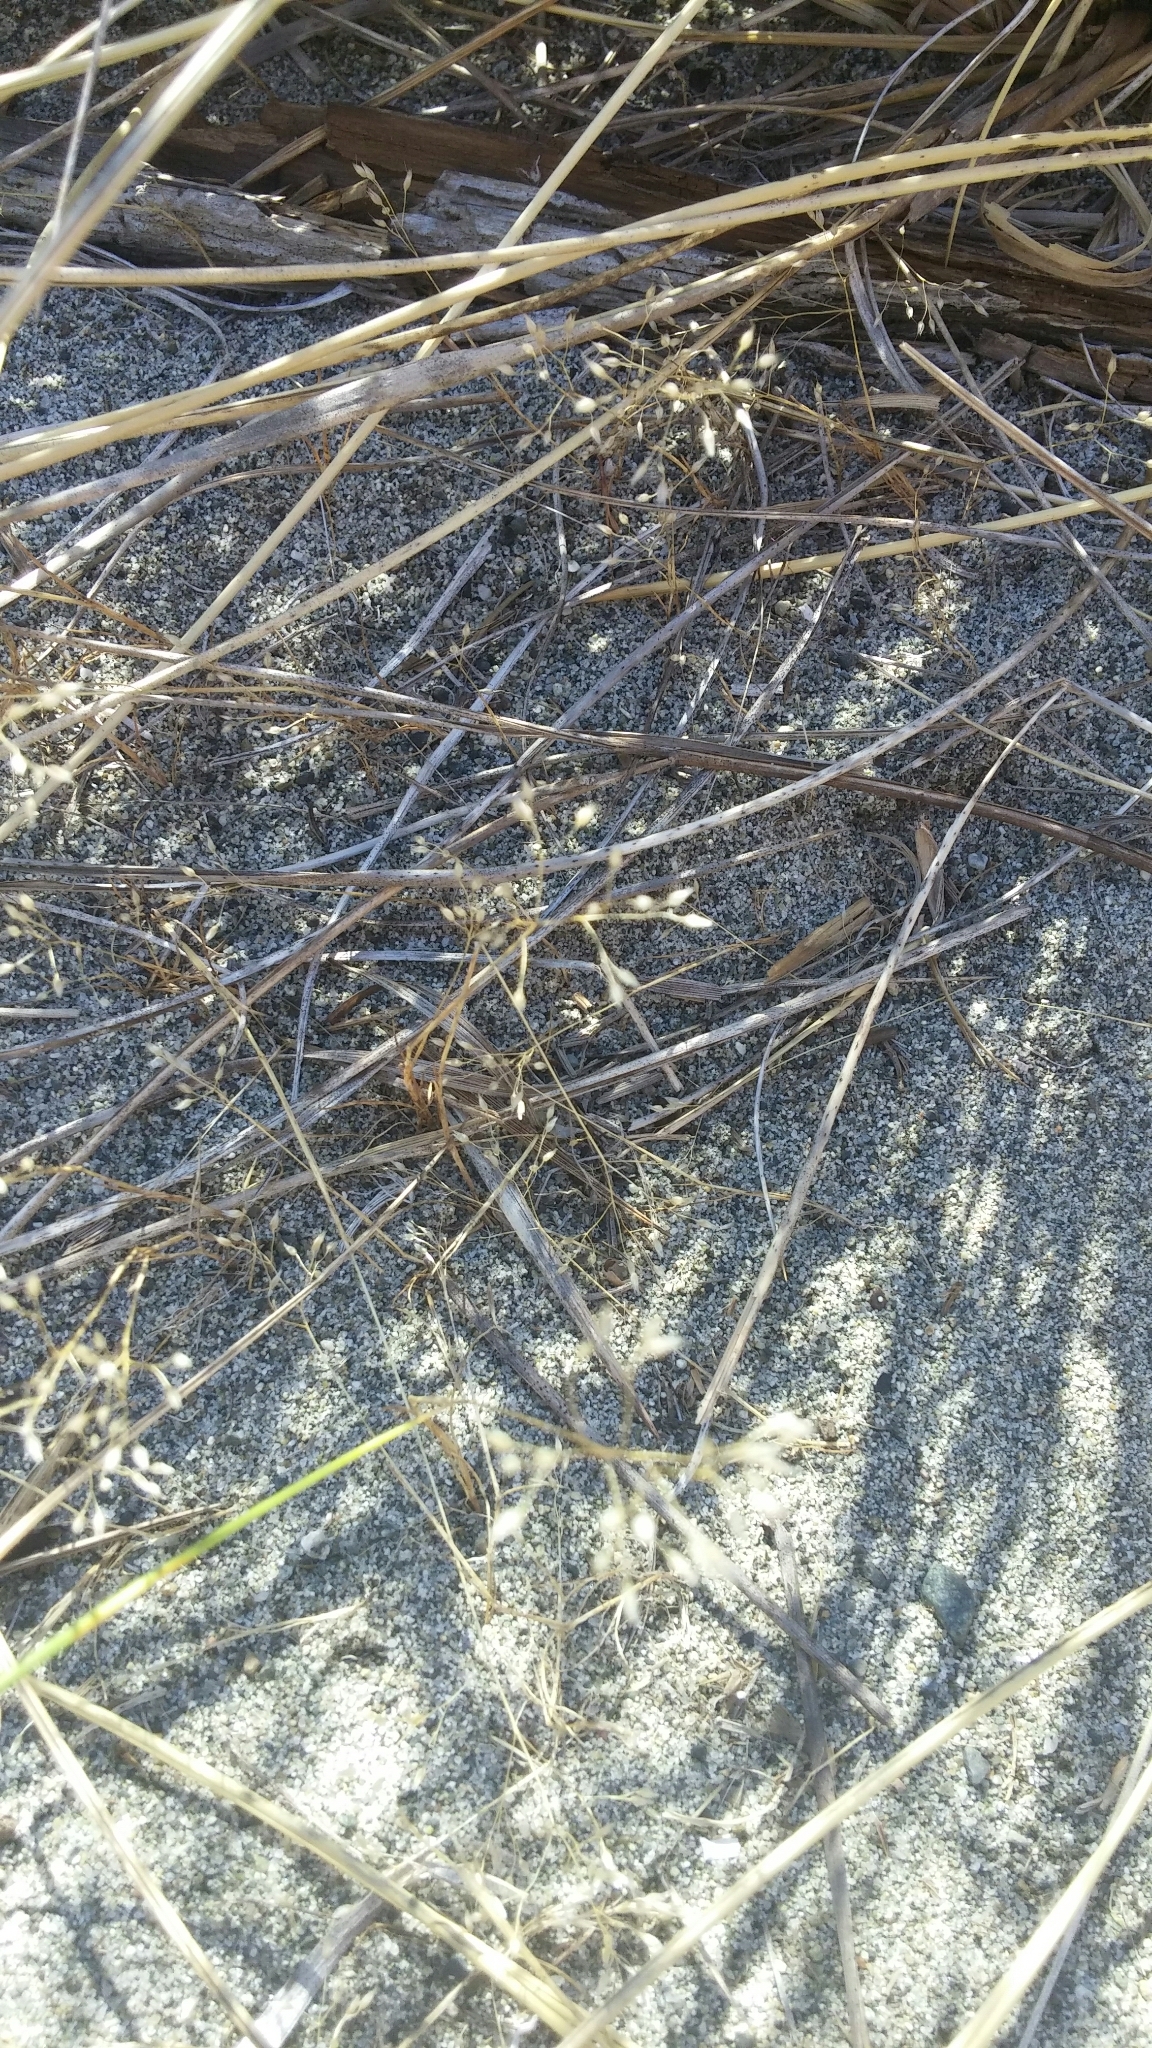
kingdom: Plantae
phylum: Tracheophyta
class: Liliopsida
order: Poales
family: Poaceae
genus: Aira
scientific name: Aira caryophyllea
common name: Silver hairgrass
